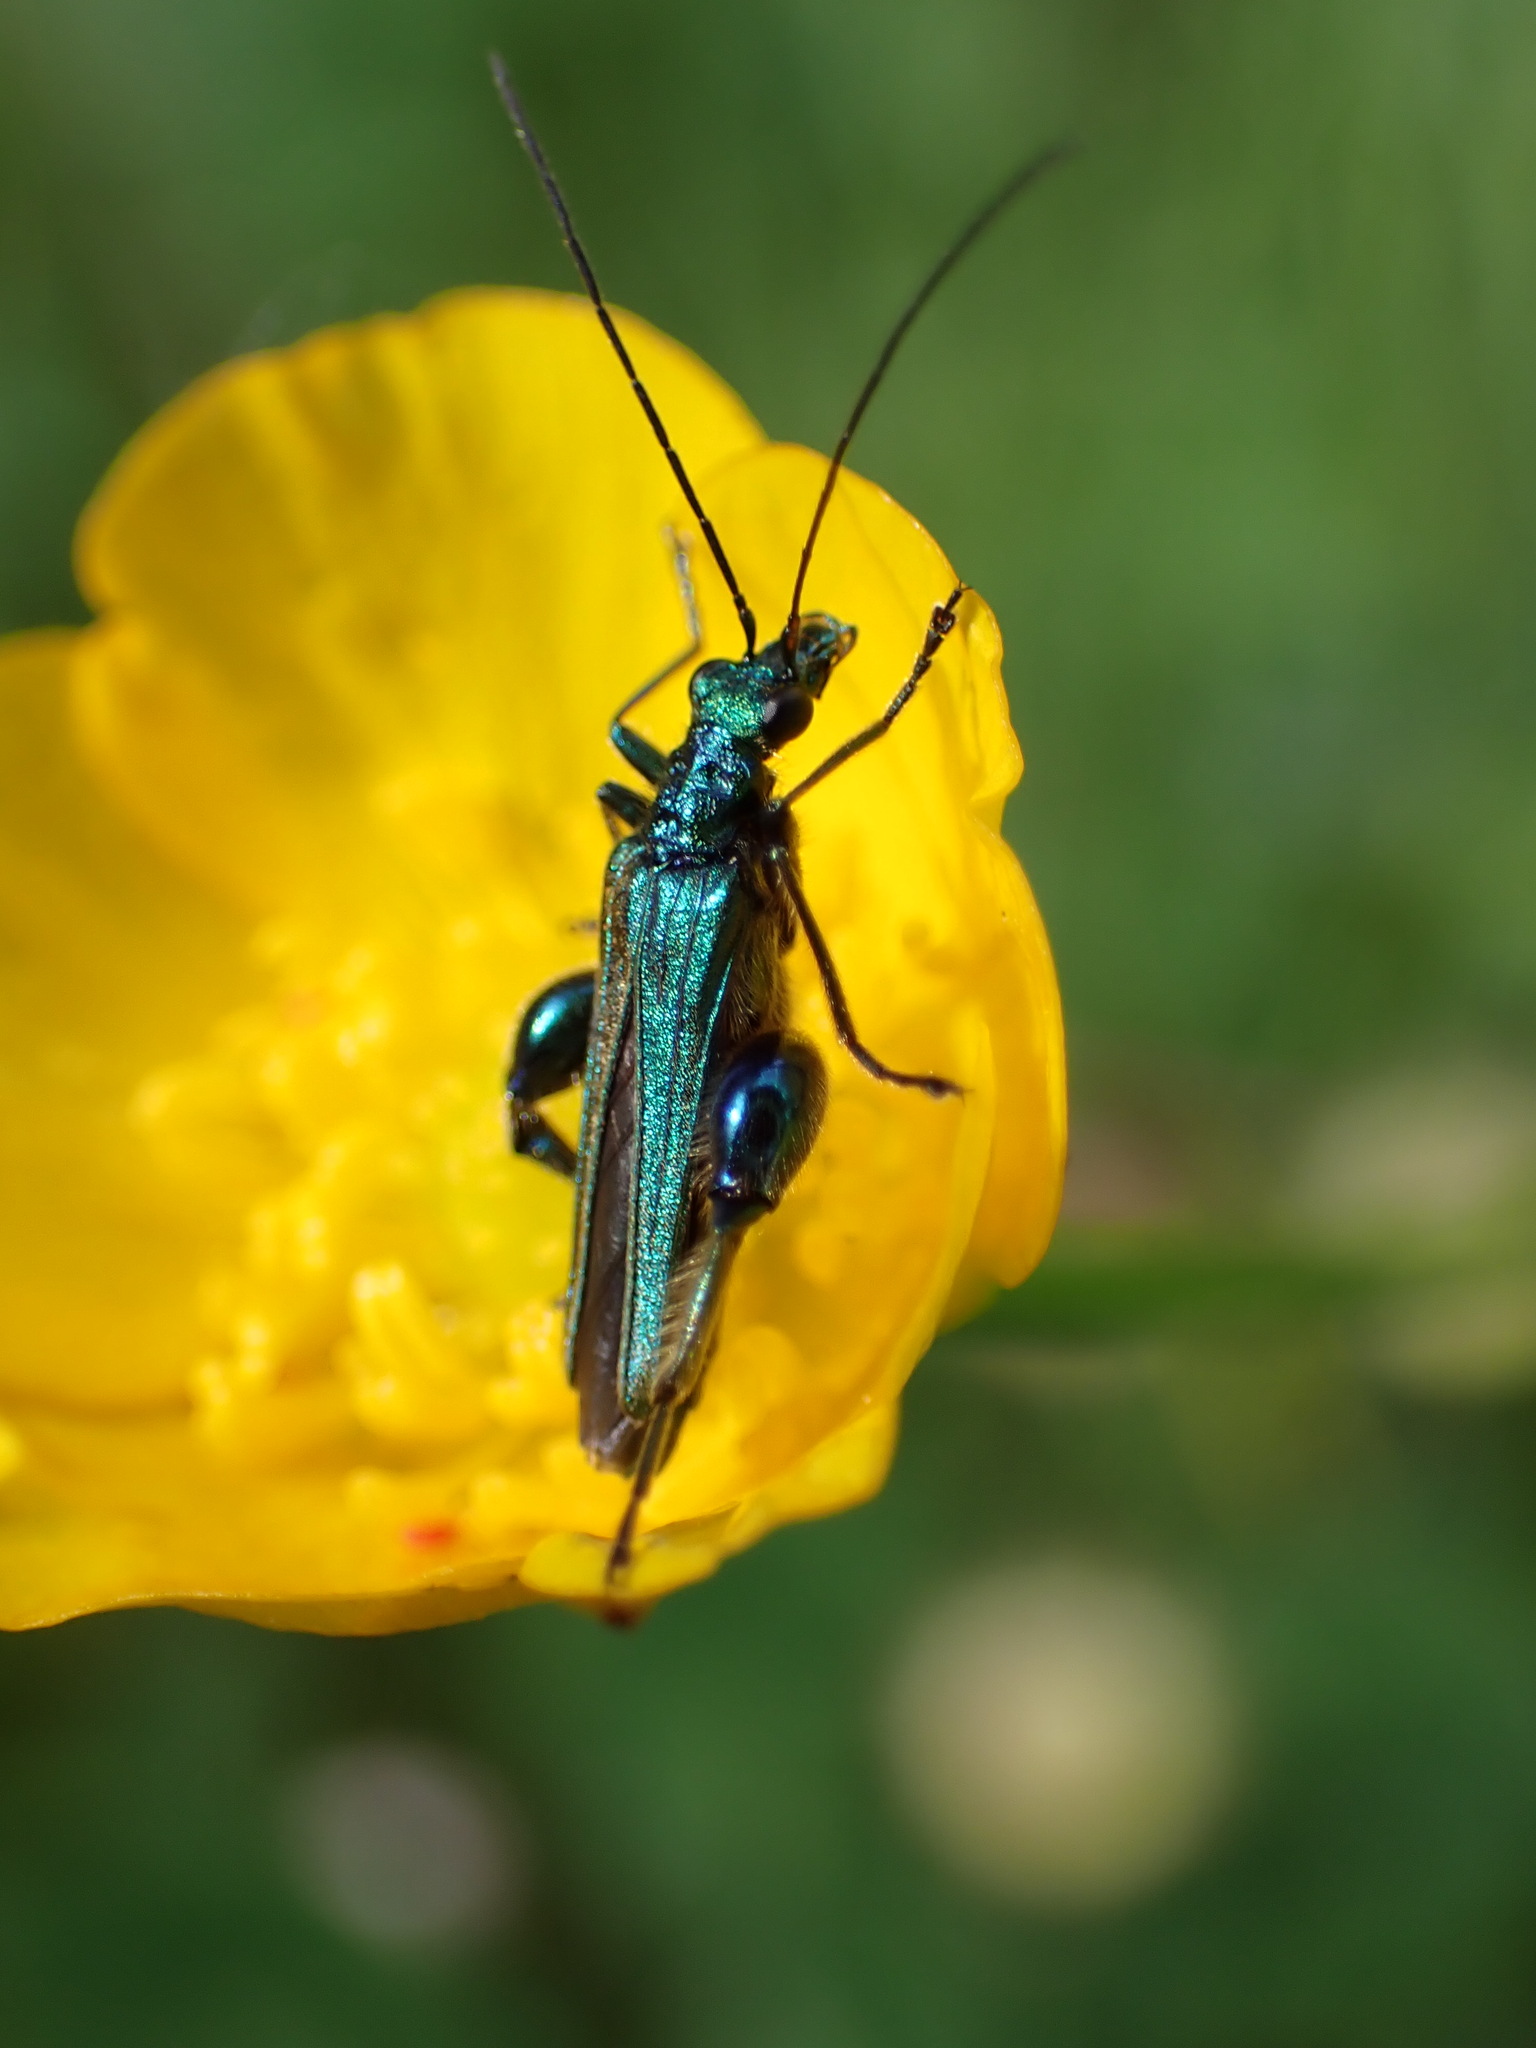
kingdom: Animalia
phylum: Arthropoda
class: Insecta
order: Coleoptera
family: Oedemeridae
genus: Oedemera
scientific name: Oedemera nobilis
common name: Swollen-thighed beetle
